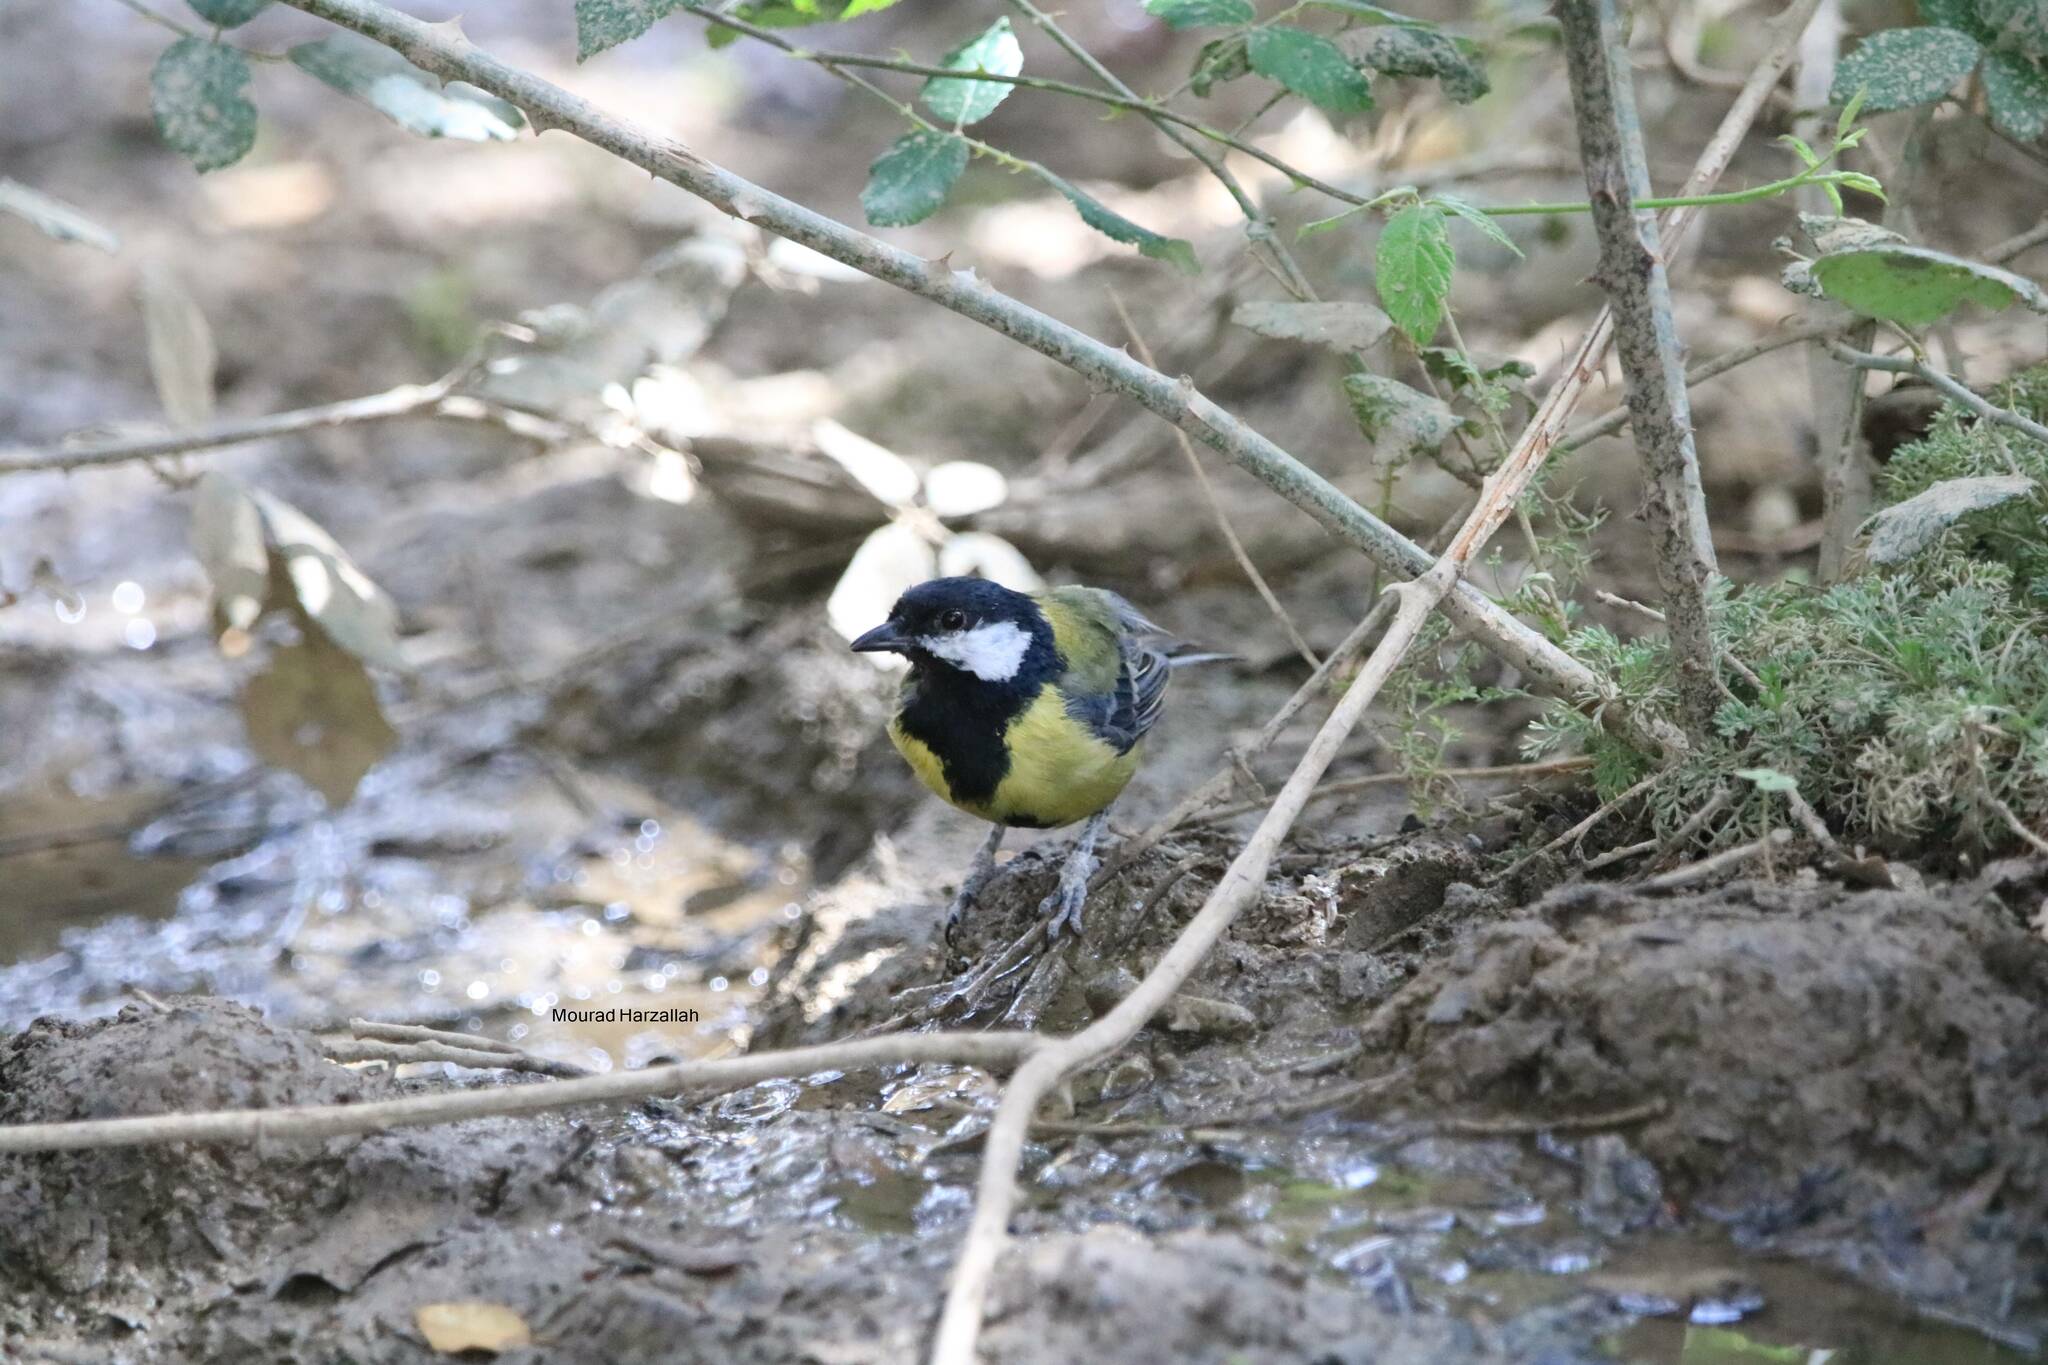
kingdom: Animalia
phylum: Chordata
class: Aves
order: Passeriformes
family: Paridae
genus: Parus
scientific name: Parus major
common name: Great tit
